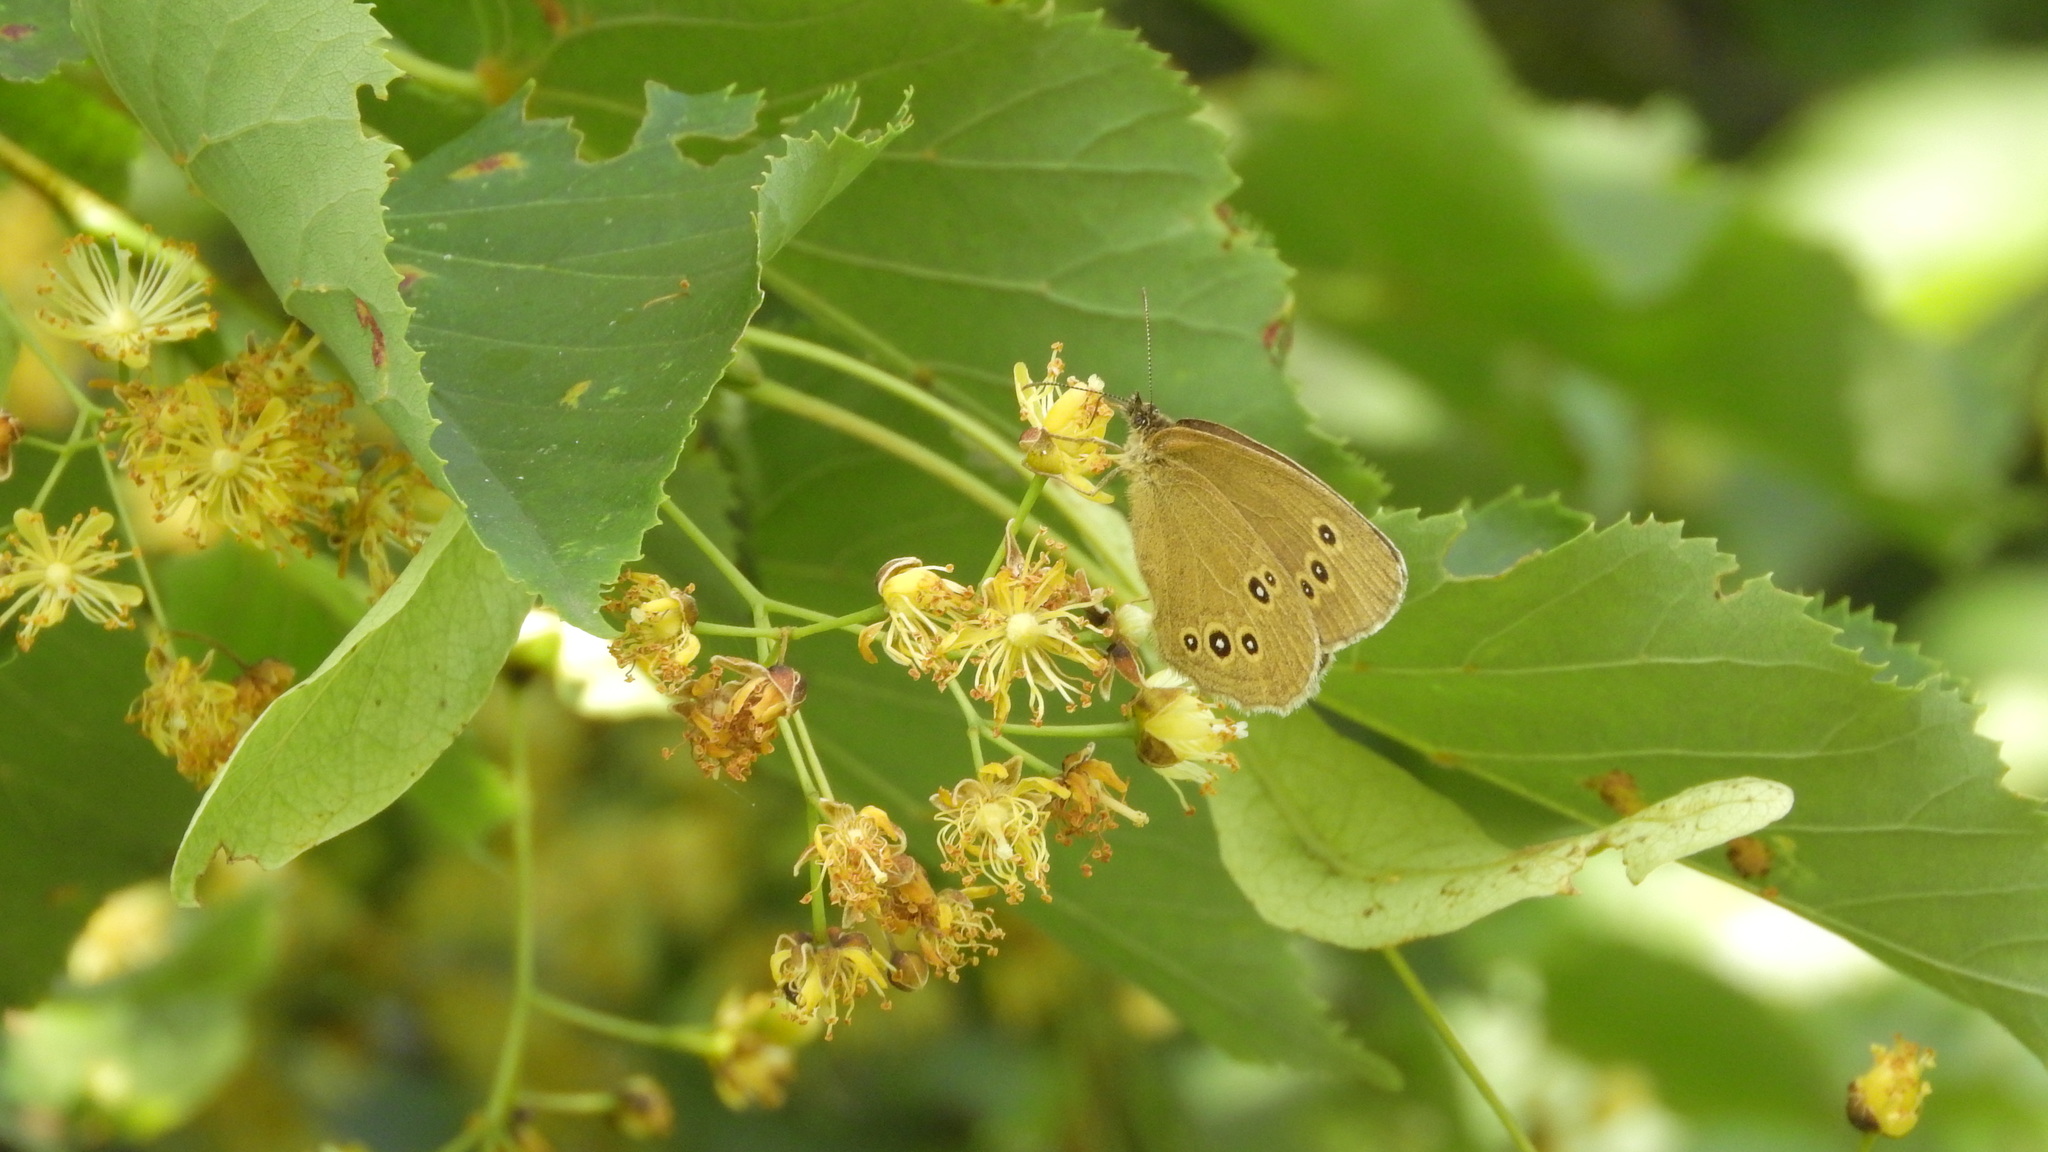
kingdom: Animalia
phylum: Arthropoda
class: Insecta
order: Lepidoptera
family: Nymphalidae
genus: Aphantopus
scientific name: Aphantopus hyperantus
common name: Ringlet
